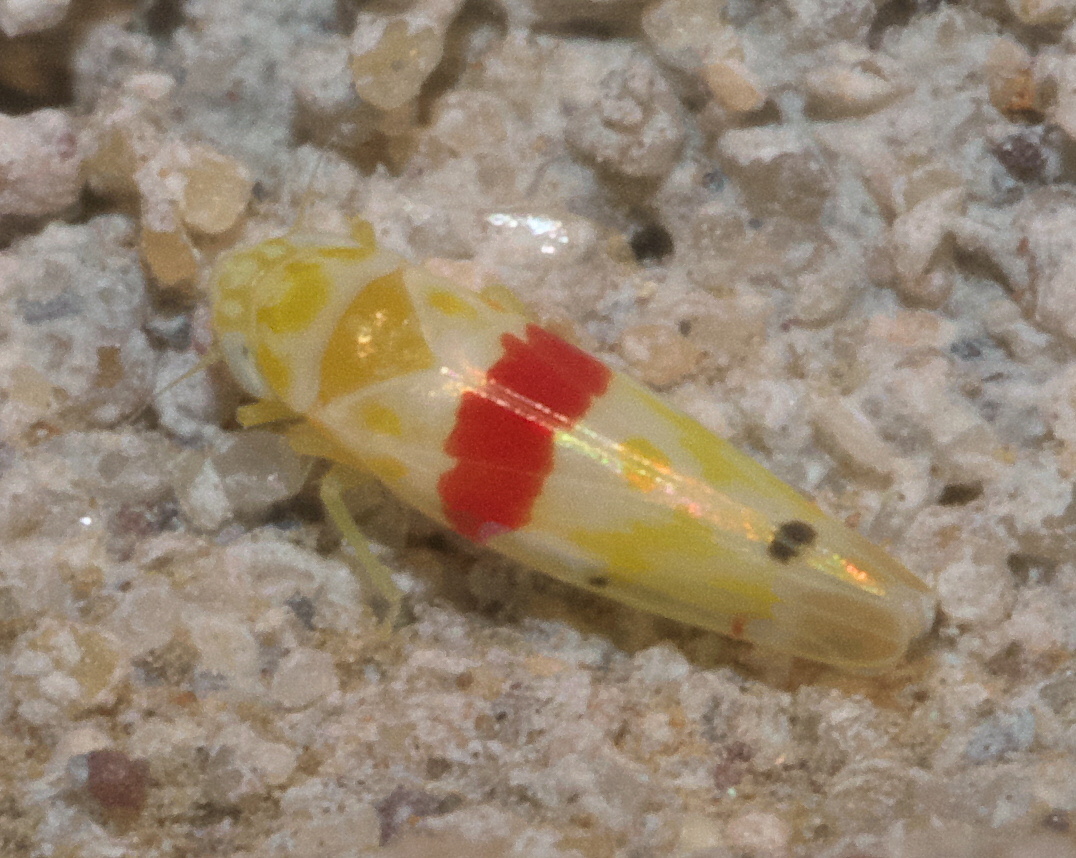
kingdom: Animalia
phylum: Arthropoda
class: Insecta
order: Hemiptera
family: Cicadellidae
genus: Eratoneura
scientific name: Eratoneura era
